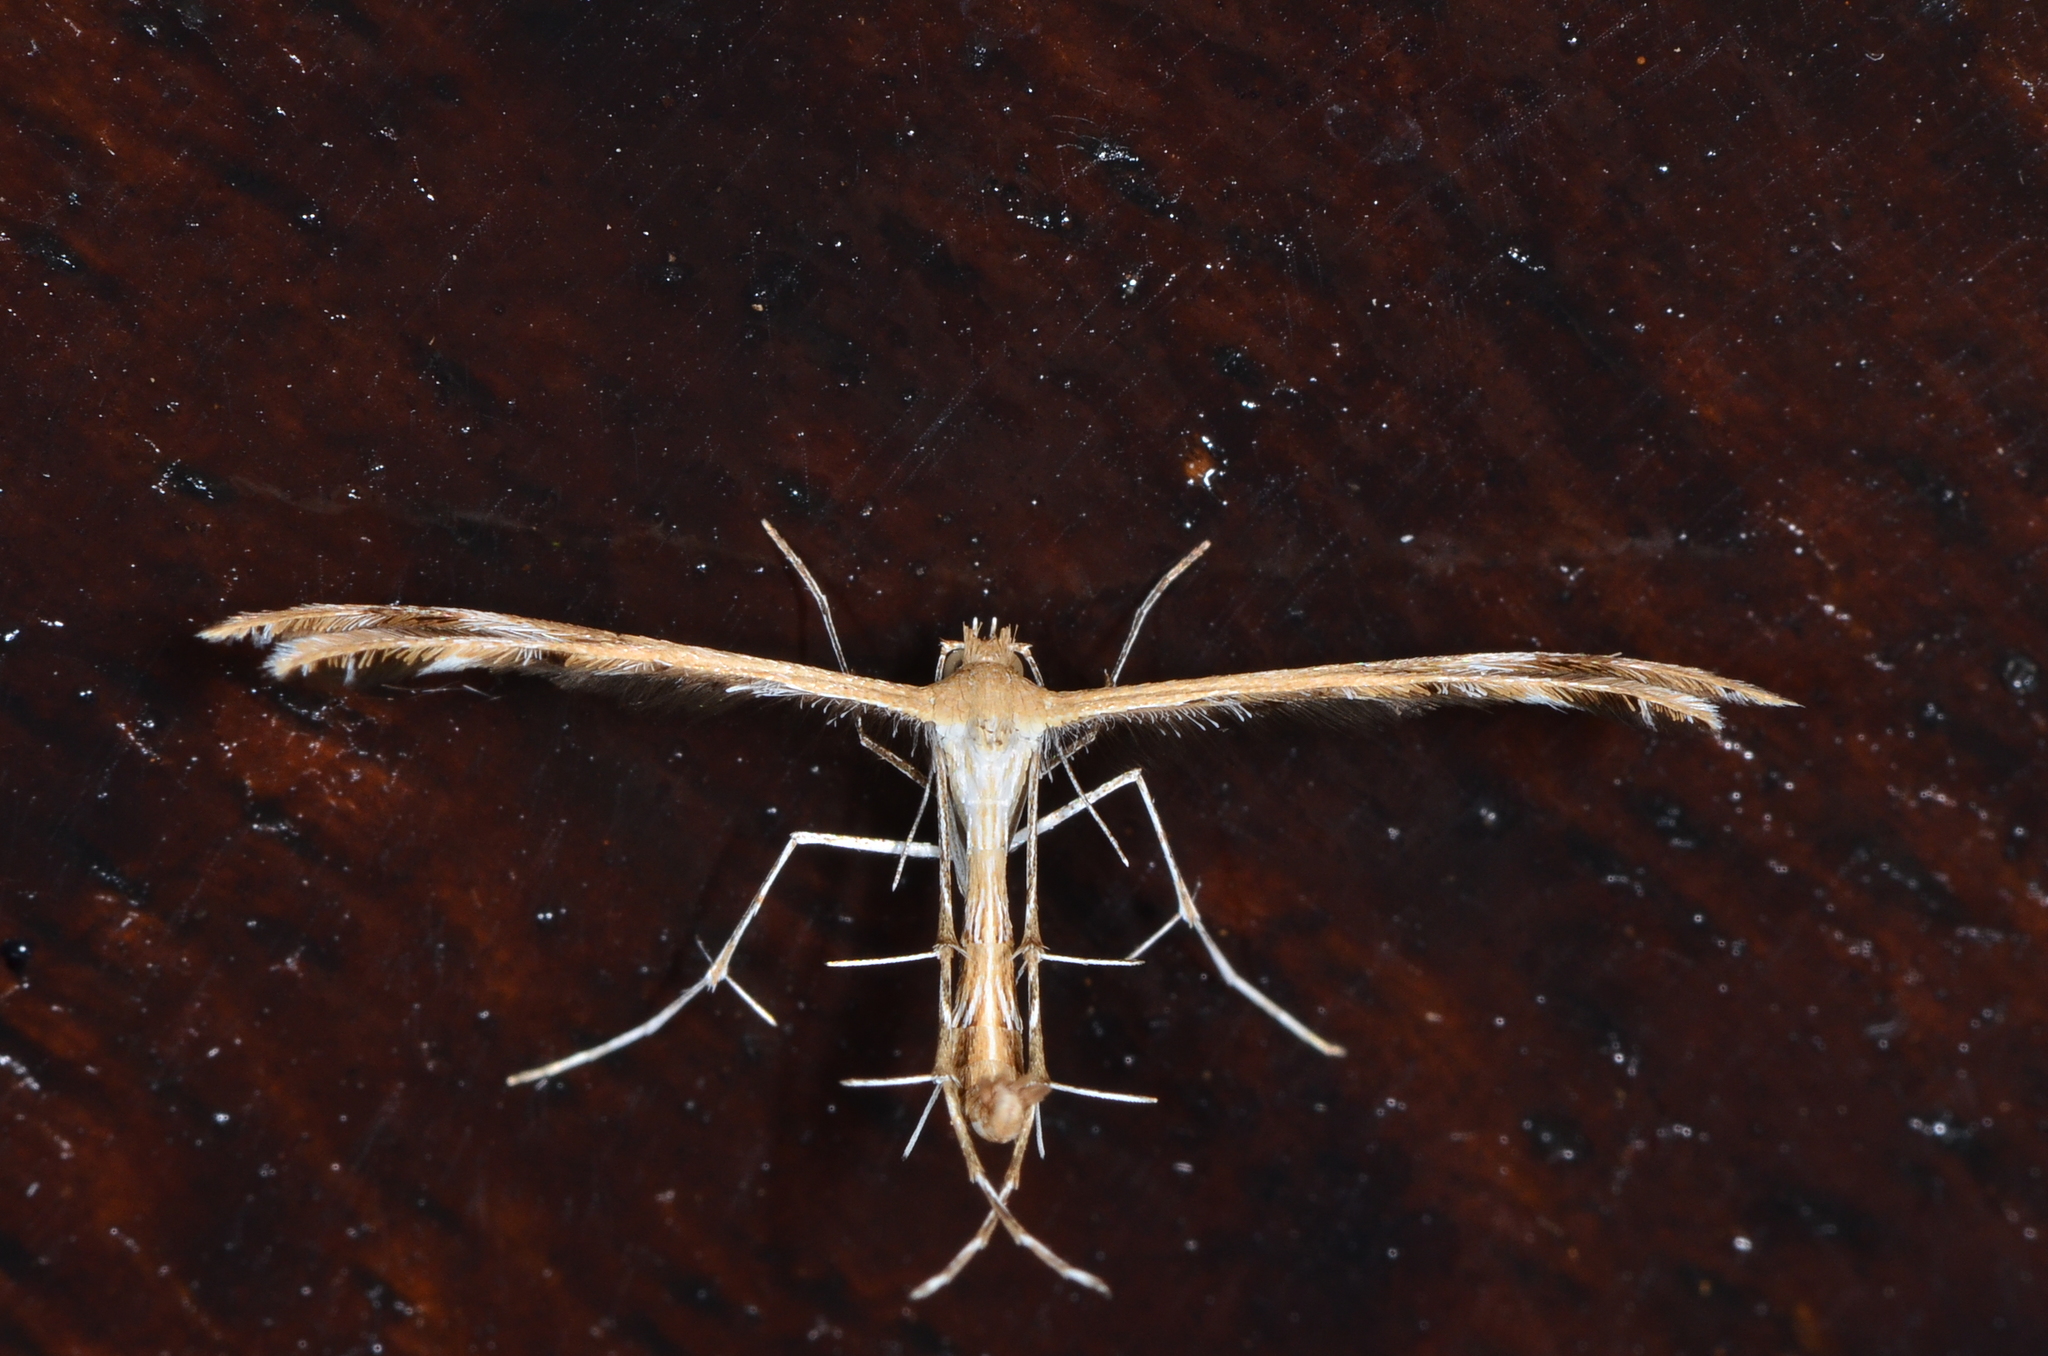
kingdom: Animalia
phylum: Arthropoda
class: Insecta
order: Lepidoptera
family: Pterophoridae
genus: Megalorhipida
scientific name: Megalorhipida leucodactylus
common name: Plume moth
